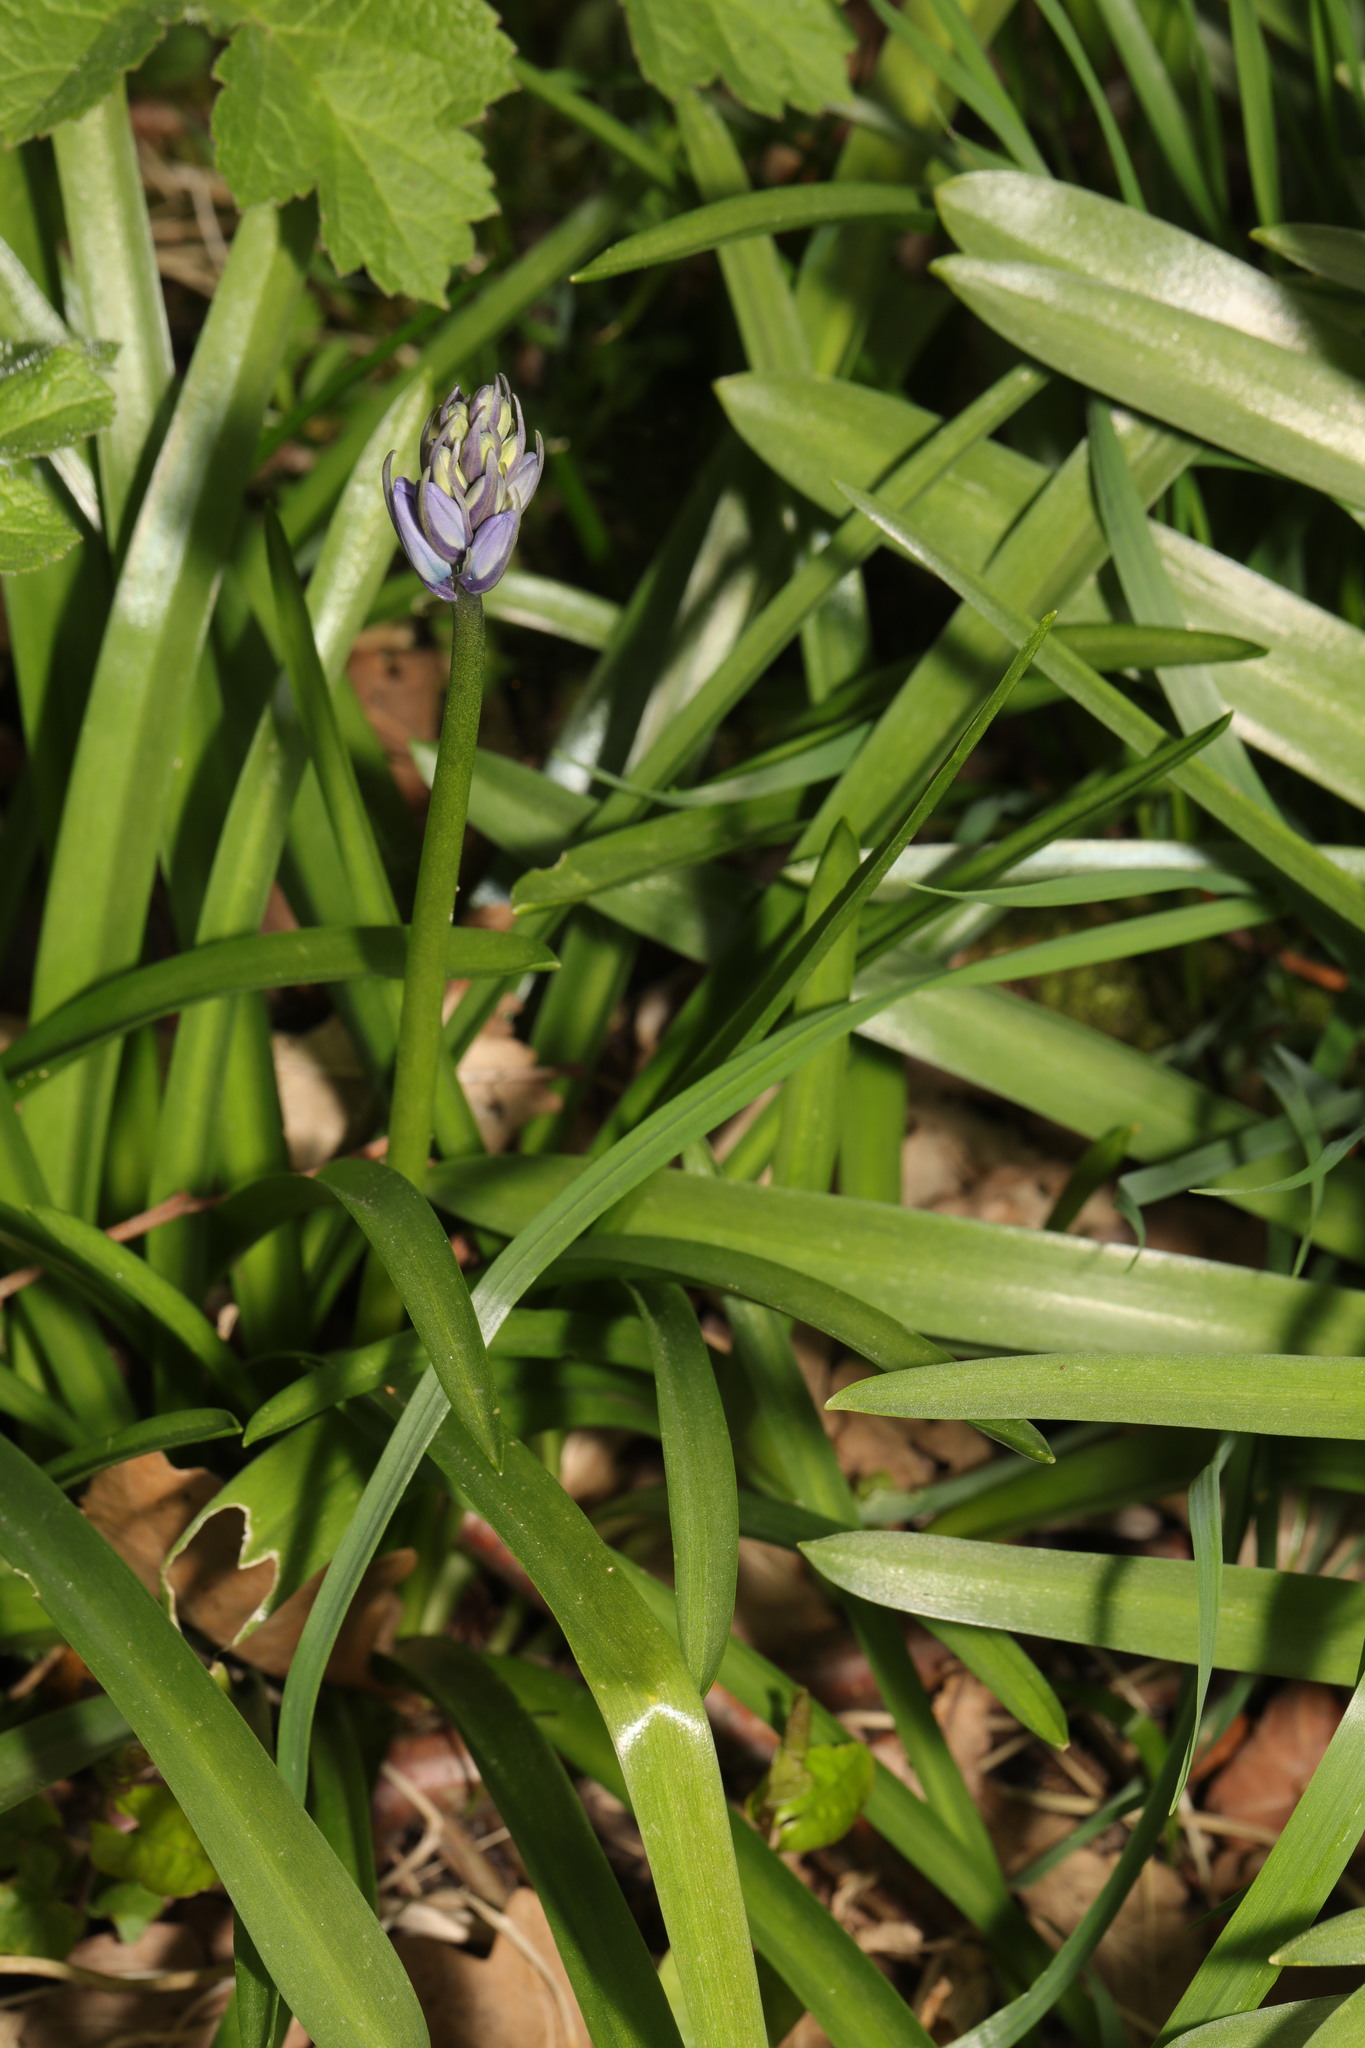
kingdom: Plantae
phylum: Tracheophyta
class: Liliopsida
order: Asparagales
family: Asparagaceae
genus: Hyacinthoides
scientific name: Hyacinthoides hispanica
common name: Spanish bluebell
